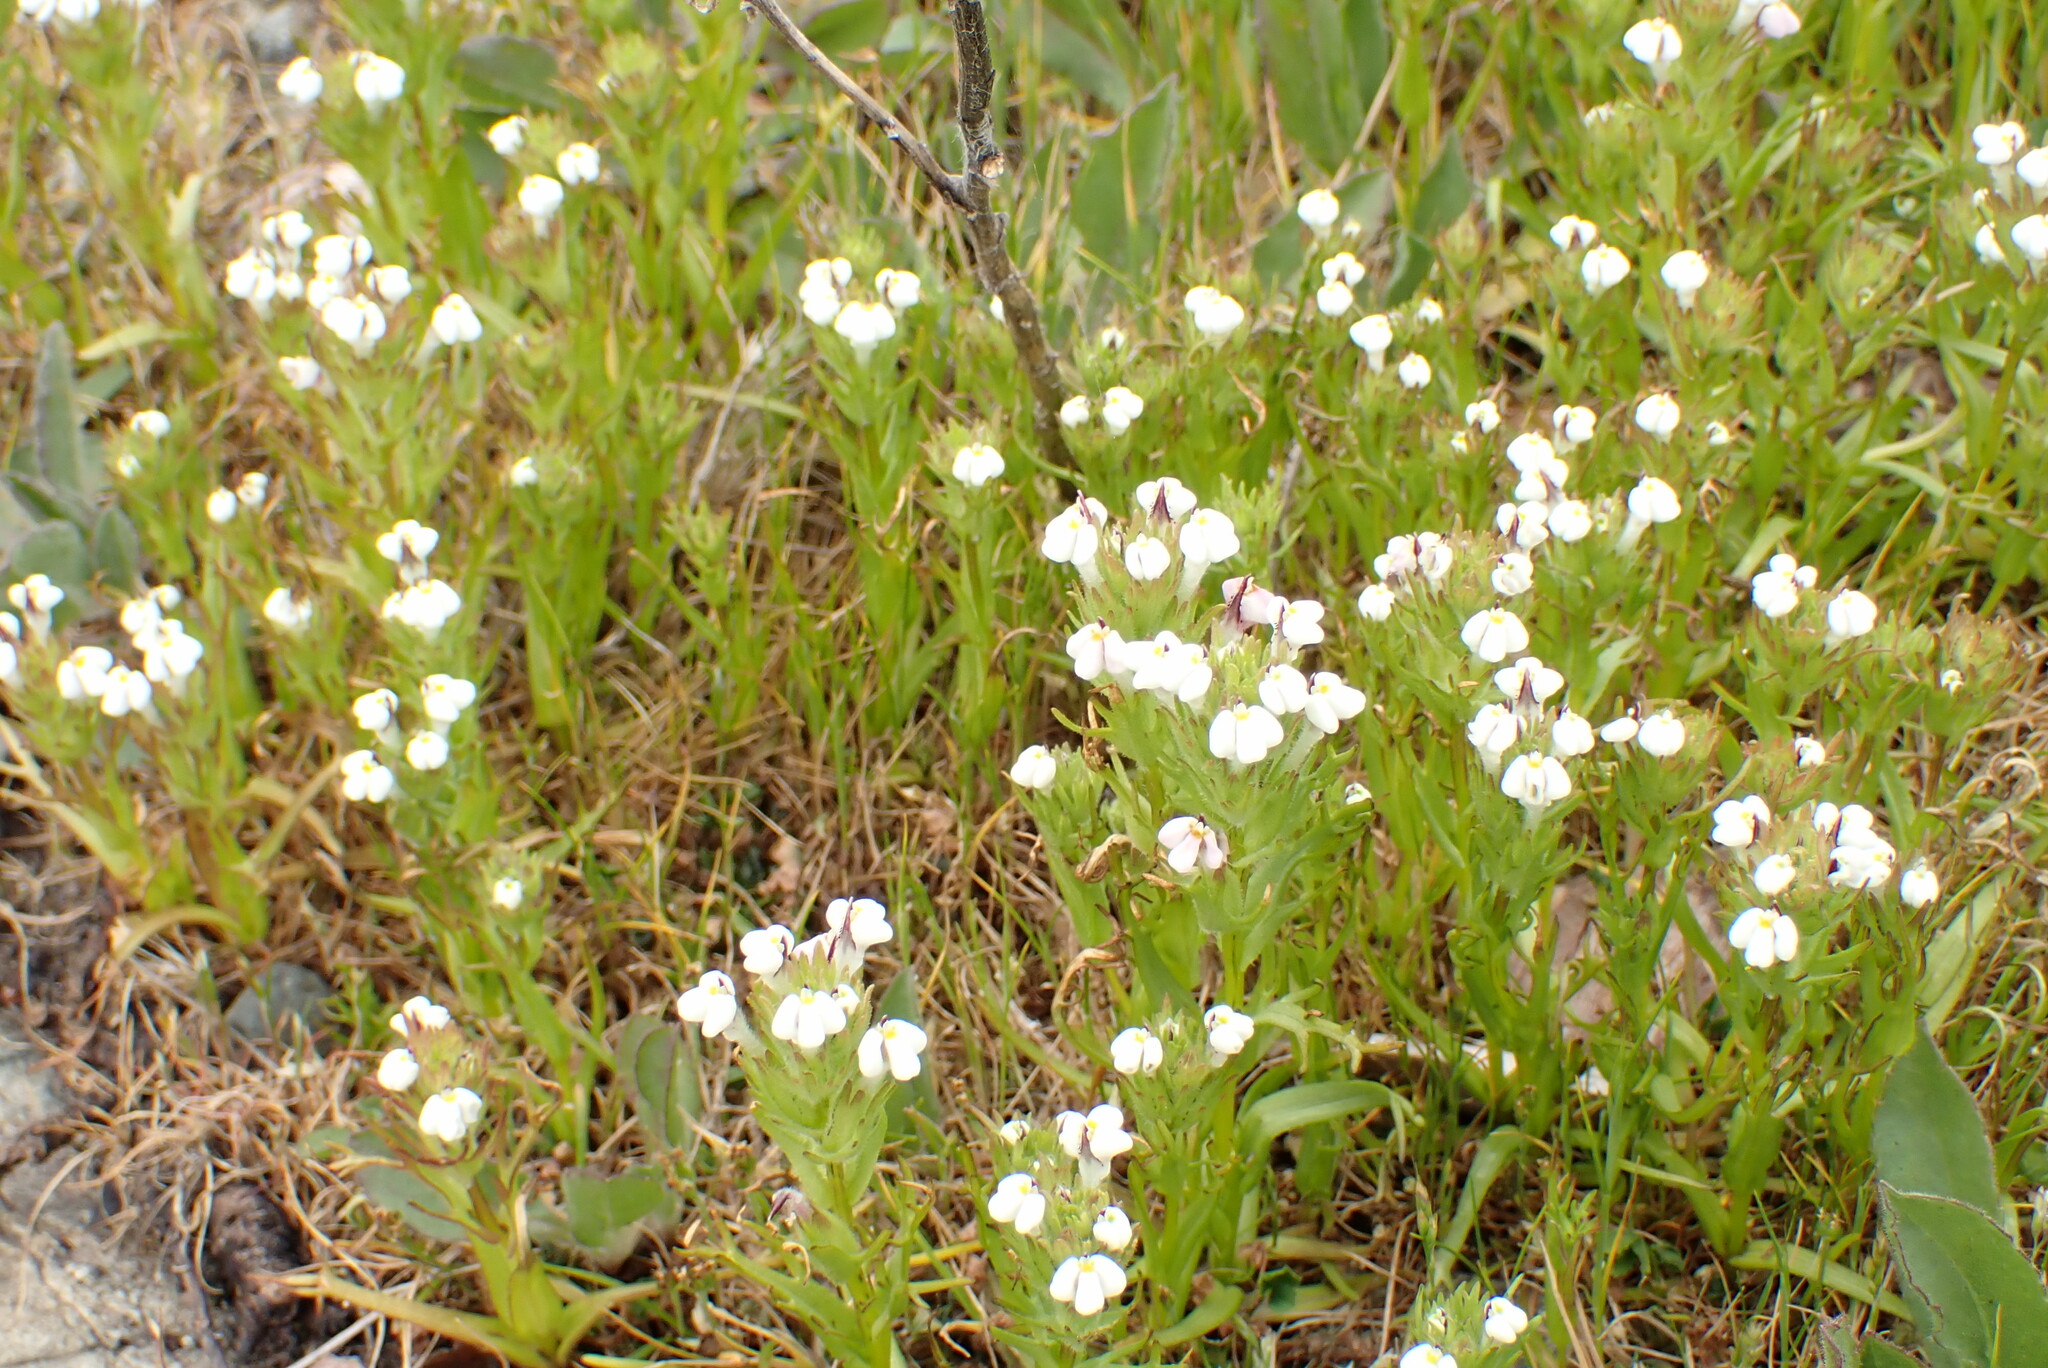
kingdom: Plantae
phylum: Tracheophyta
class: Magnoliopsida
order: Lamiales
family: Orobanchaceae
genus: Triphysaria
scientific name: Triphysaria versicolor
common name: Bearded false owl-clover
